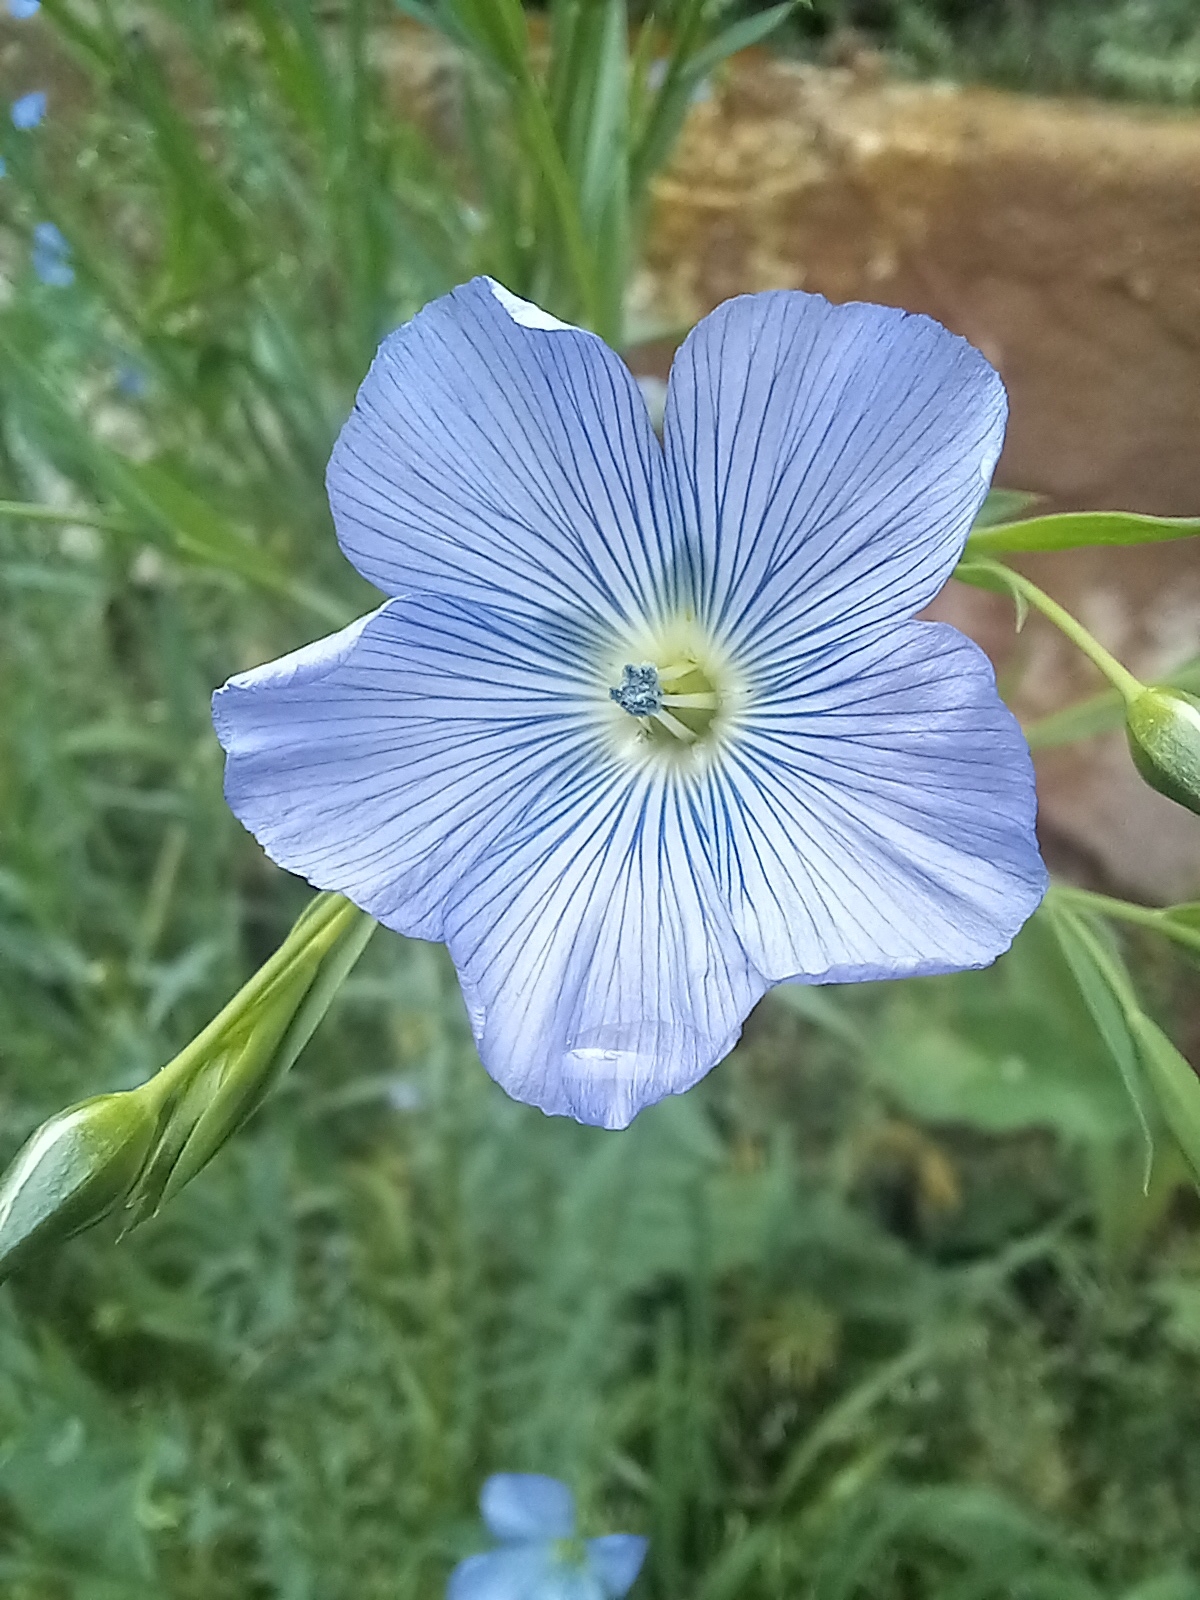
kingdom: Plantae
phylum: Tracheophyta
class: Magnoliopsida
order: Malpighiales
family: Linaceae
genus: Linum
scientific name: Linum usitatissimum
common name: Flax
